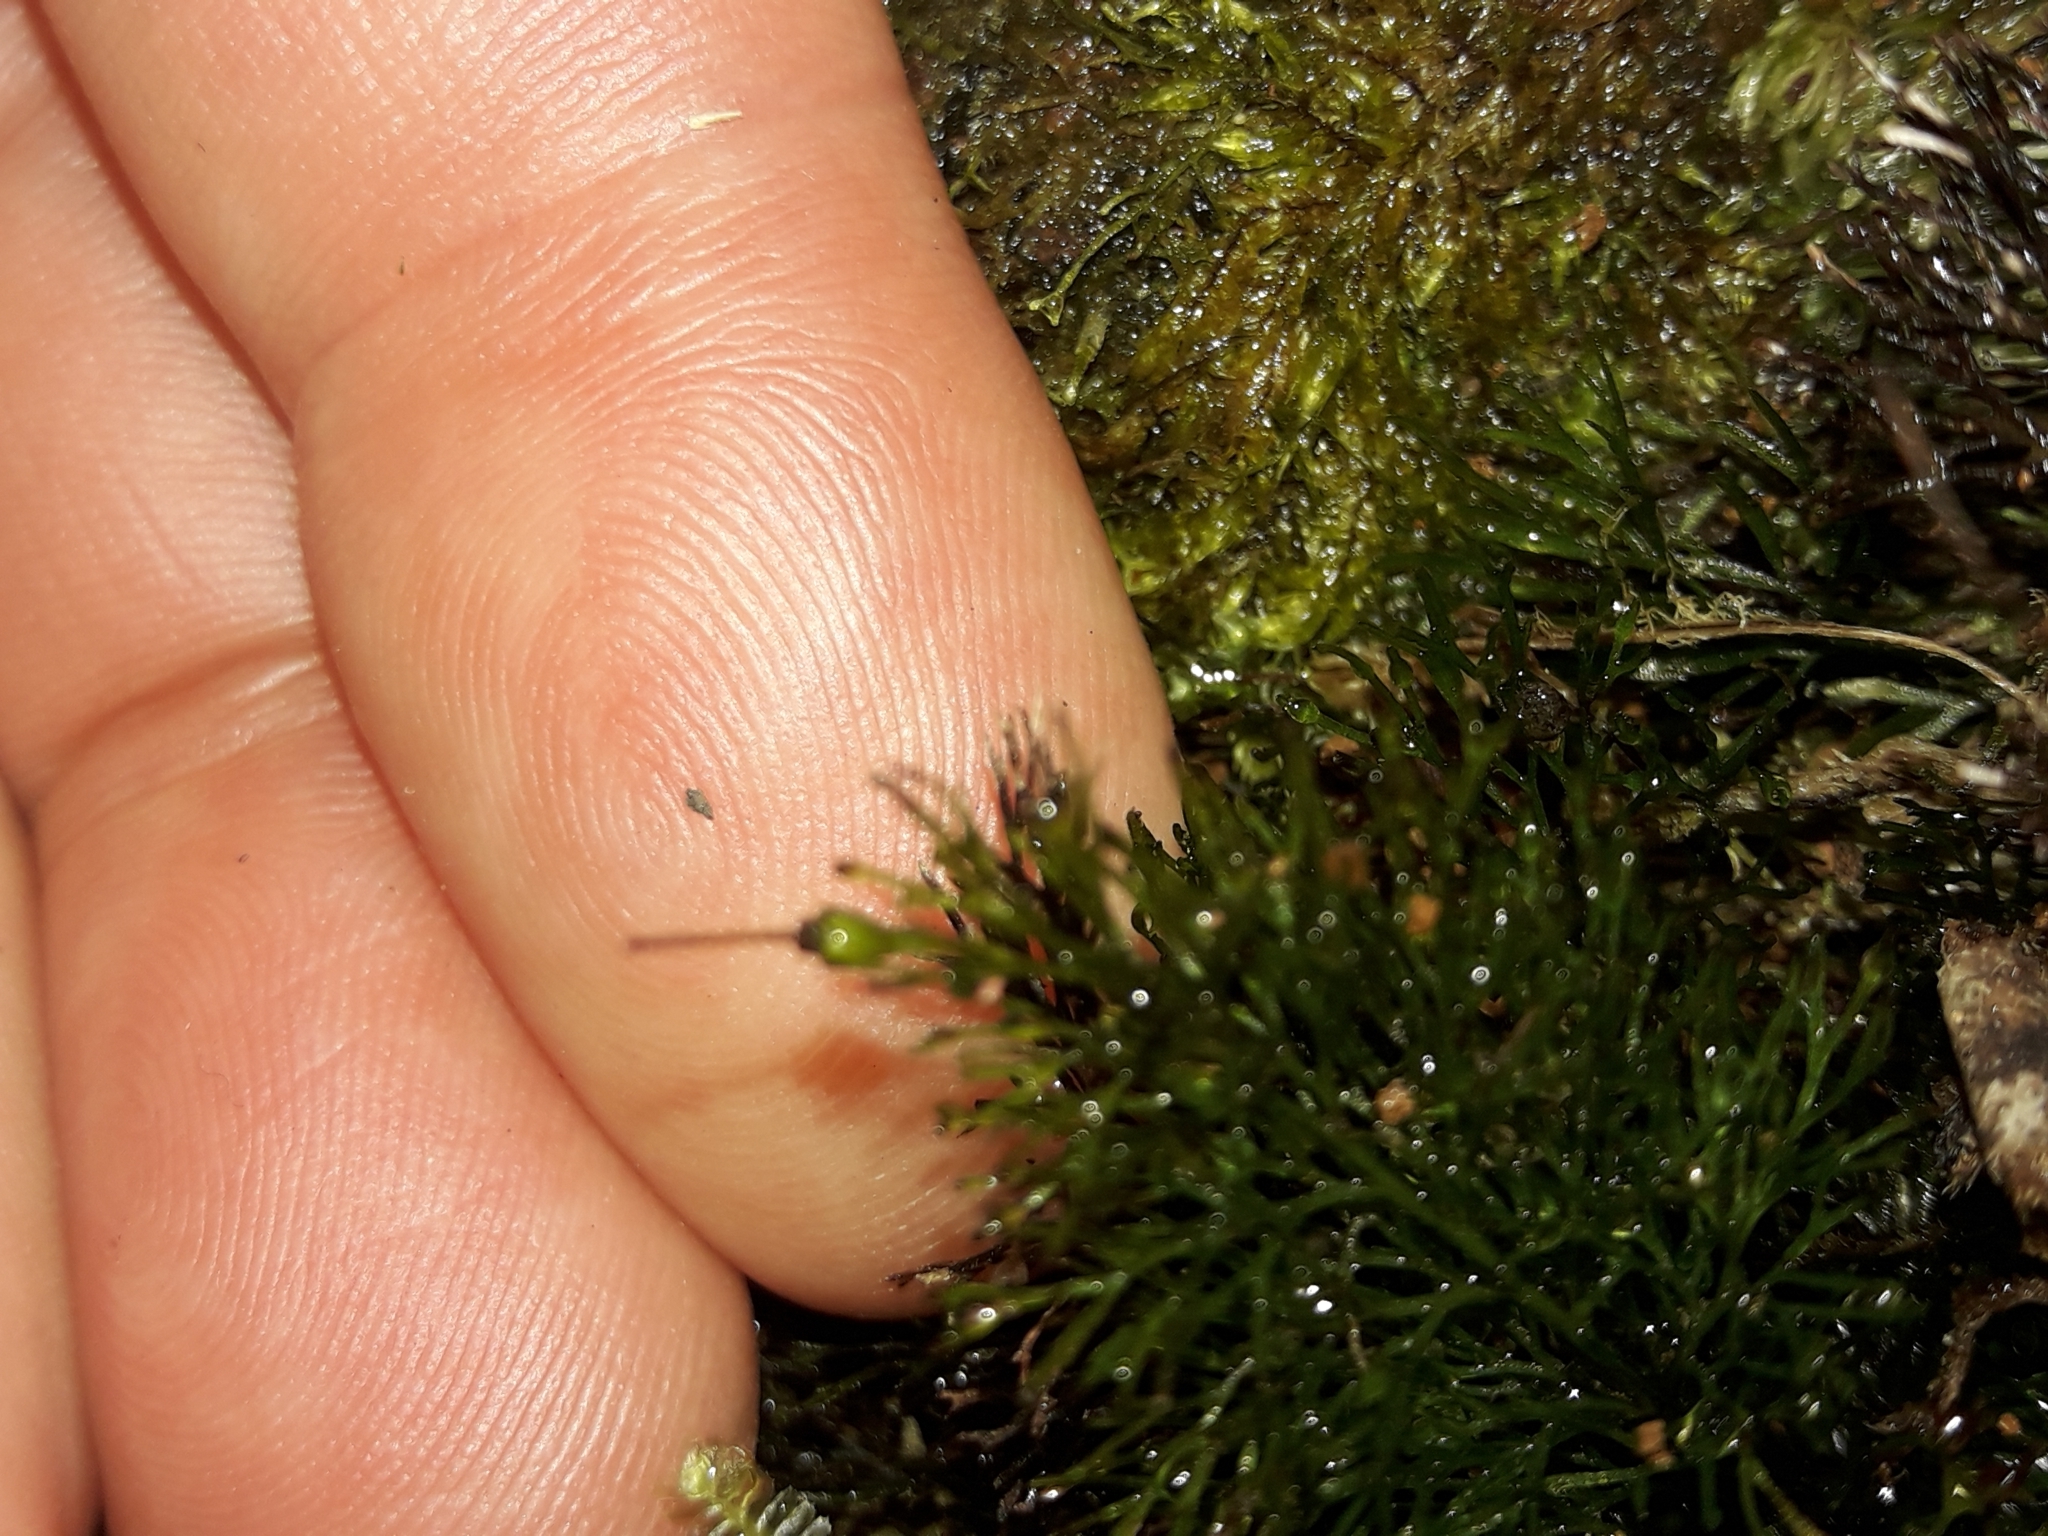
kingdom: Plantae
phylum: Tracheophyta
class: Polypodiopsida
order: Hymenophyllales
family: Hymenophyllaceae
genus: Abrodictyum
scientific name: Abrodictyum laetum
